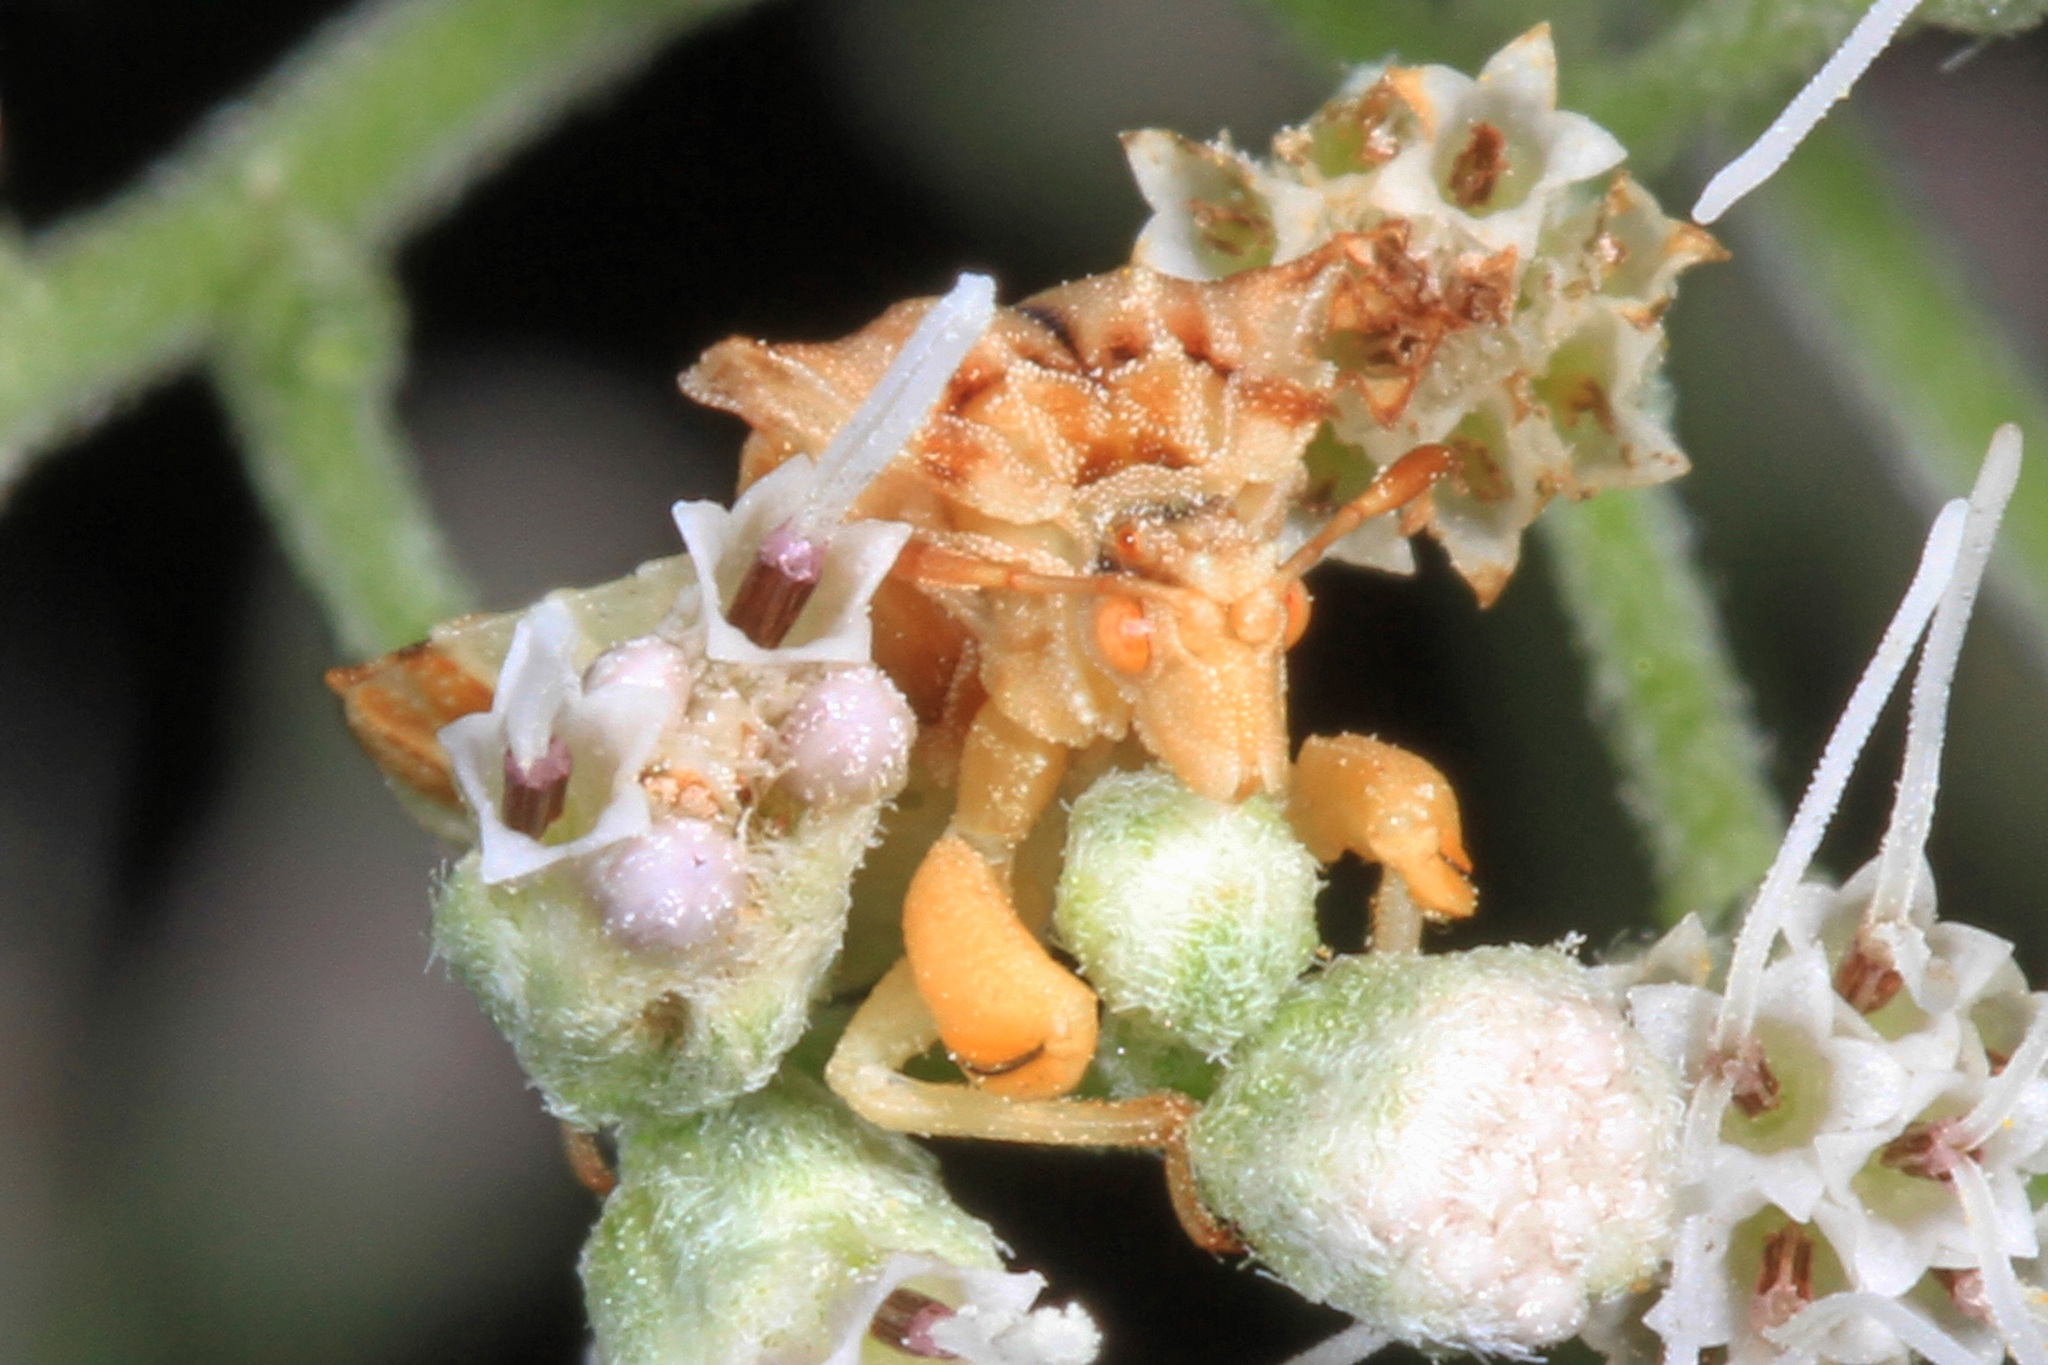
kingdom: Animalia
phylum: Arthropoda
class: Insecta
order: Hemiptera
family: Reduviidae
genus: Phymata
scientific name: Phymata fasciata
